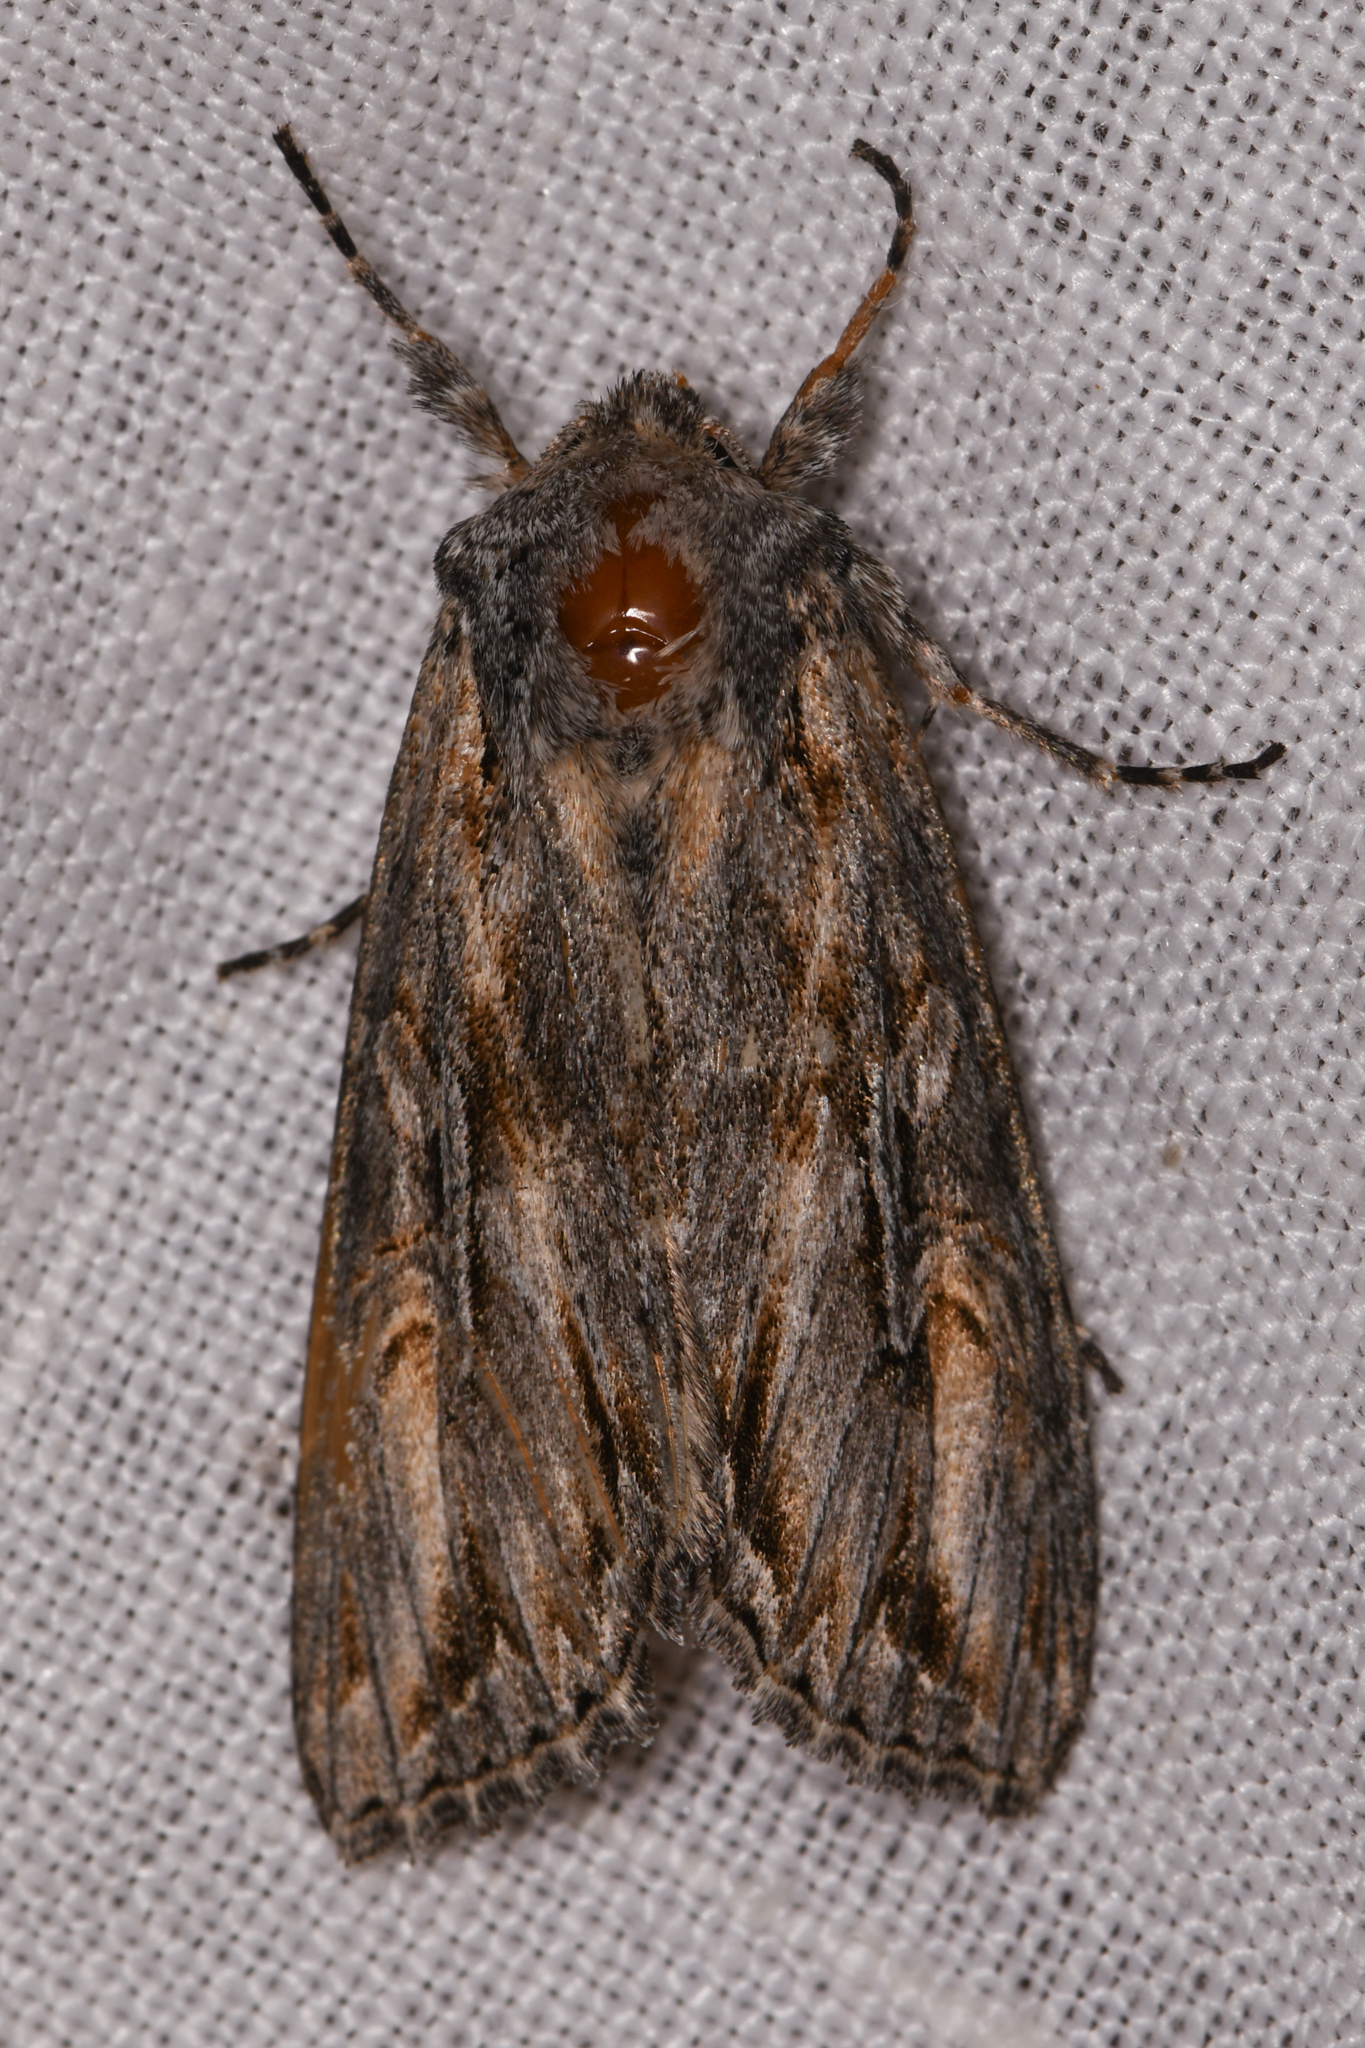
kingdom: Animalia
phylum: Arthropoda
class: Insecta
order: Lepidoptera
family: Noctuidae
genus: Polia
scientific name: Polia nugatis
